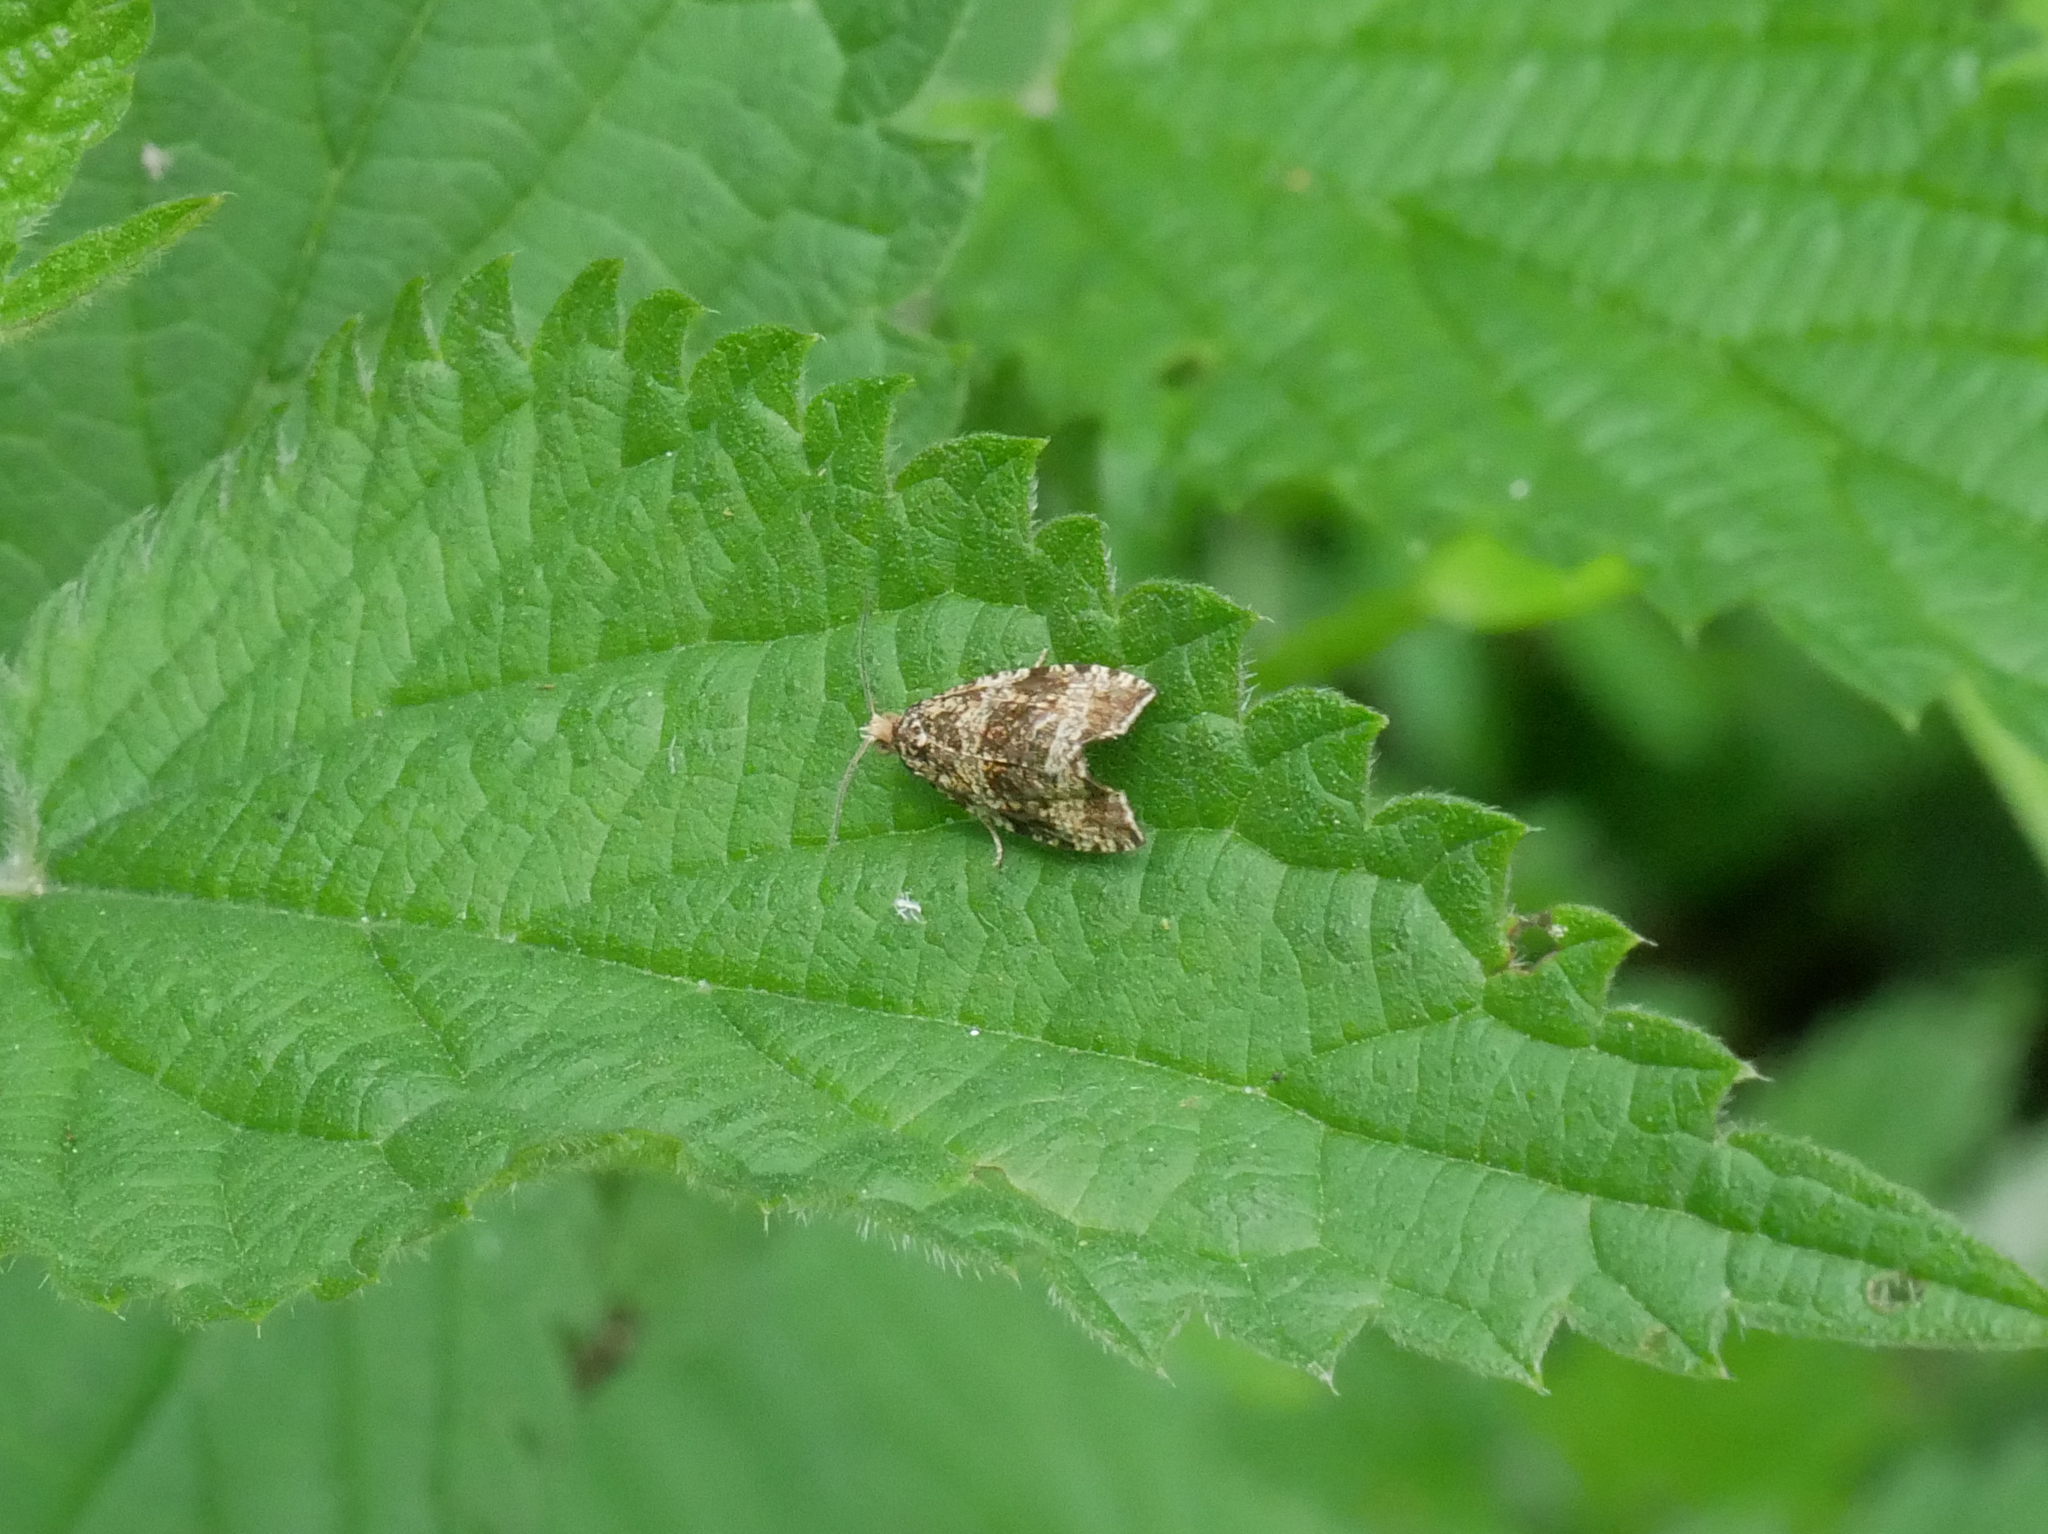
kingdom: Animalia
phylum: Arthropoda
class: Insecta
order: Lepidoptera
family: Tortricidae
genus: Syricoris
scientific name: Syricoris lacunana
